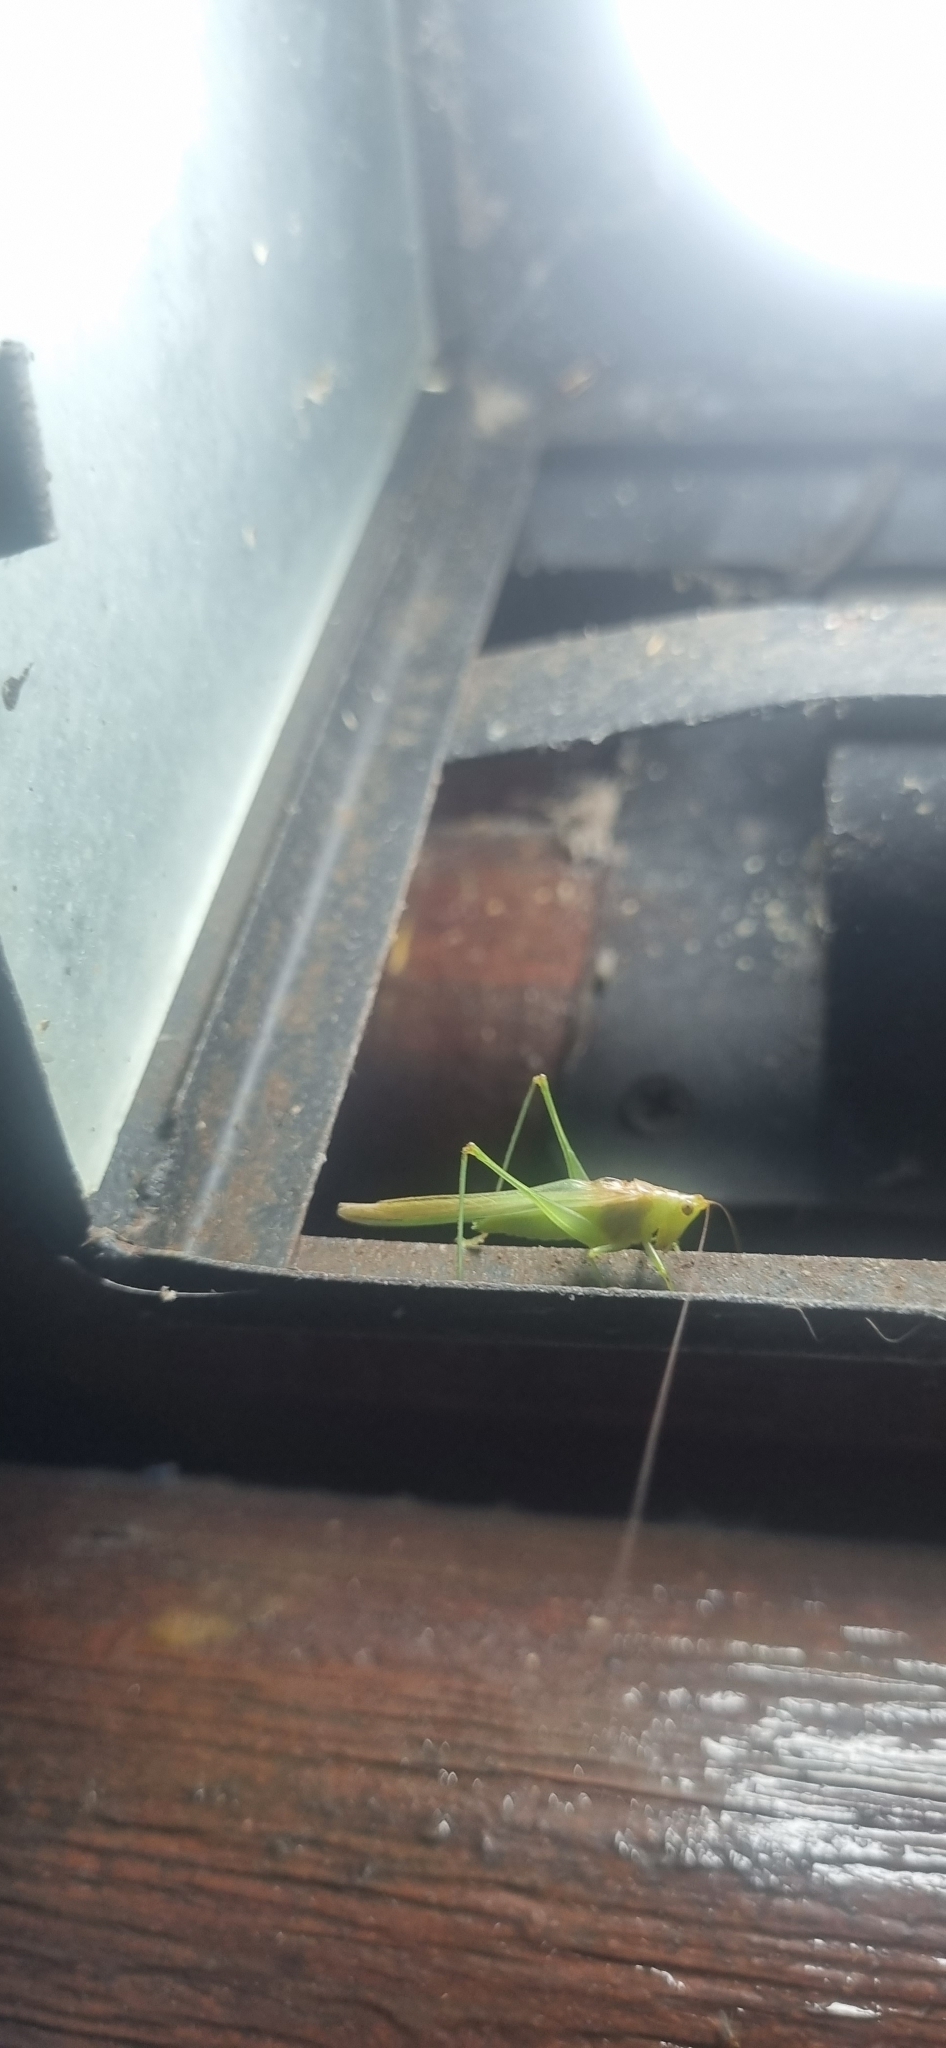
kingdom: Animalia
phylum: Arthropoda
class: Insecta
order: Orthoptera
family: Tettigoniidae
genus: Conocephalus
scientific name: Conocephalus longipes
